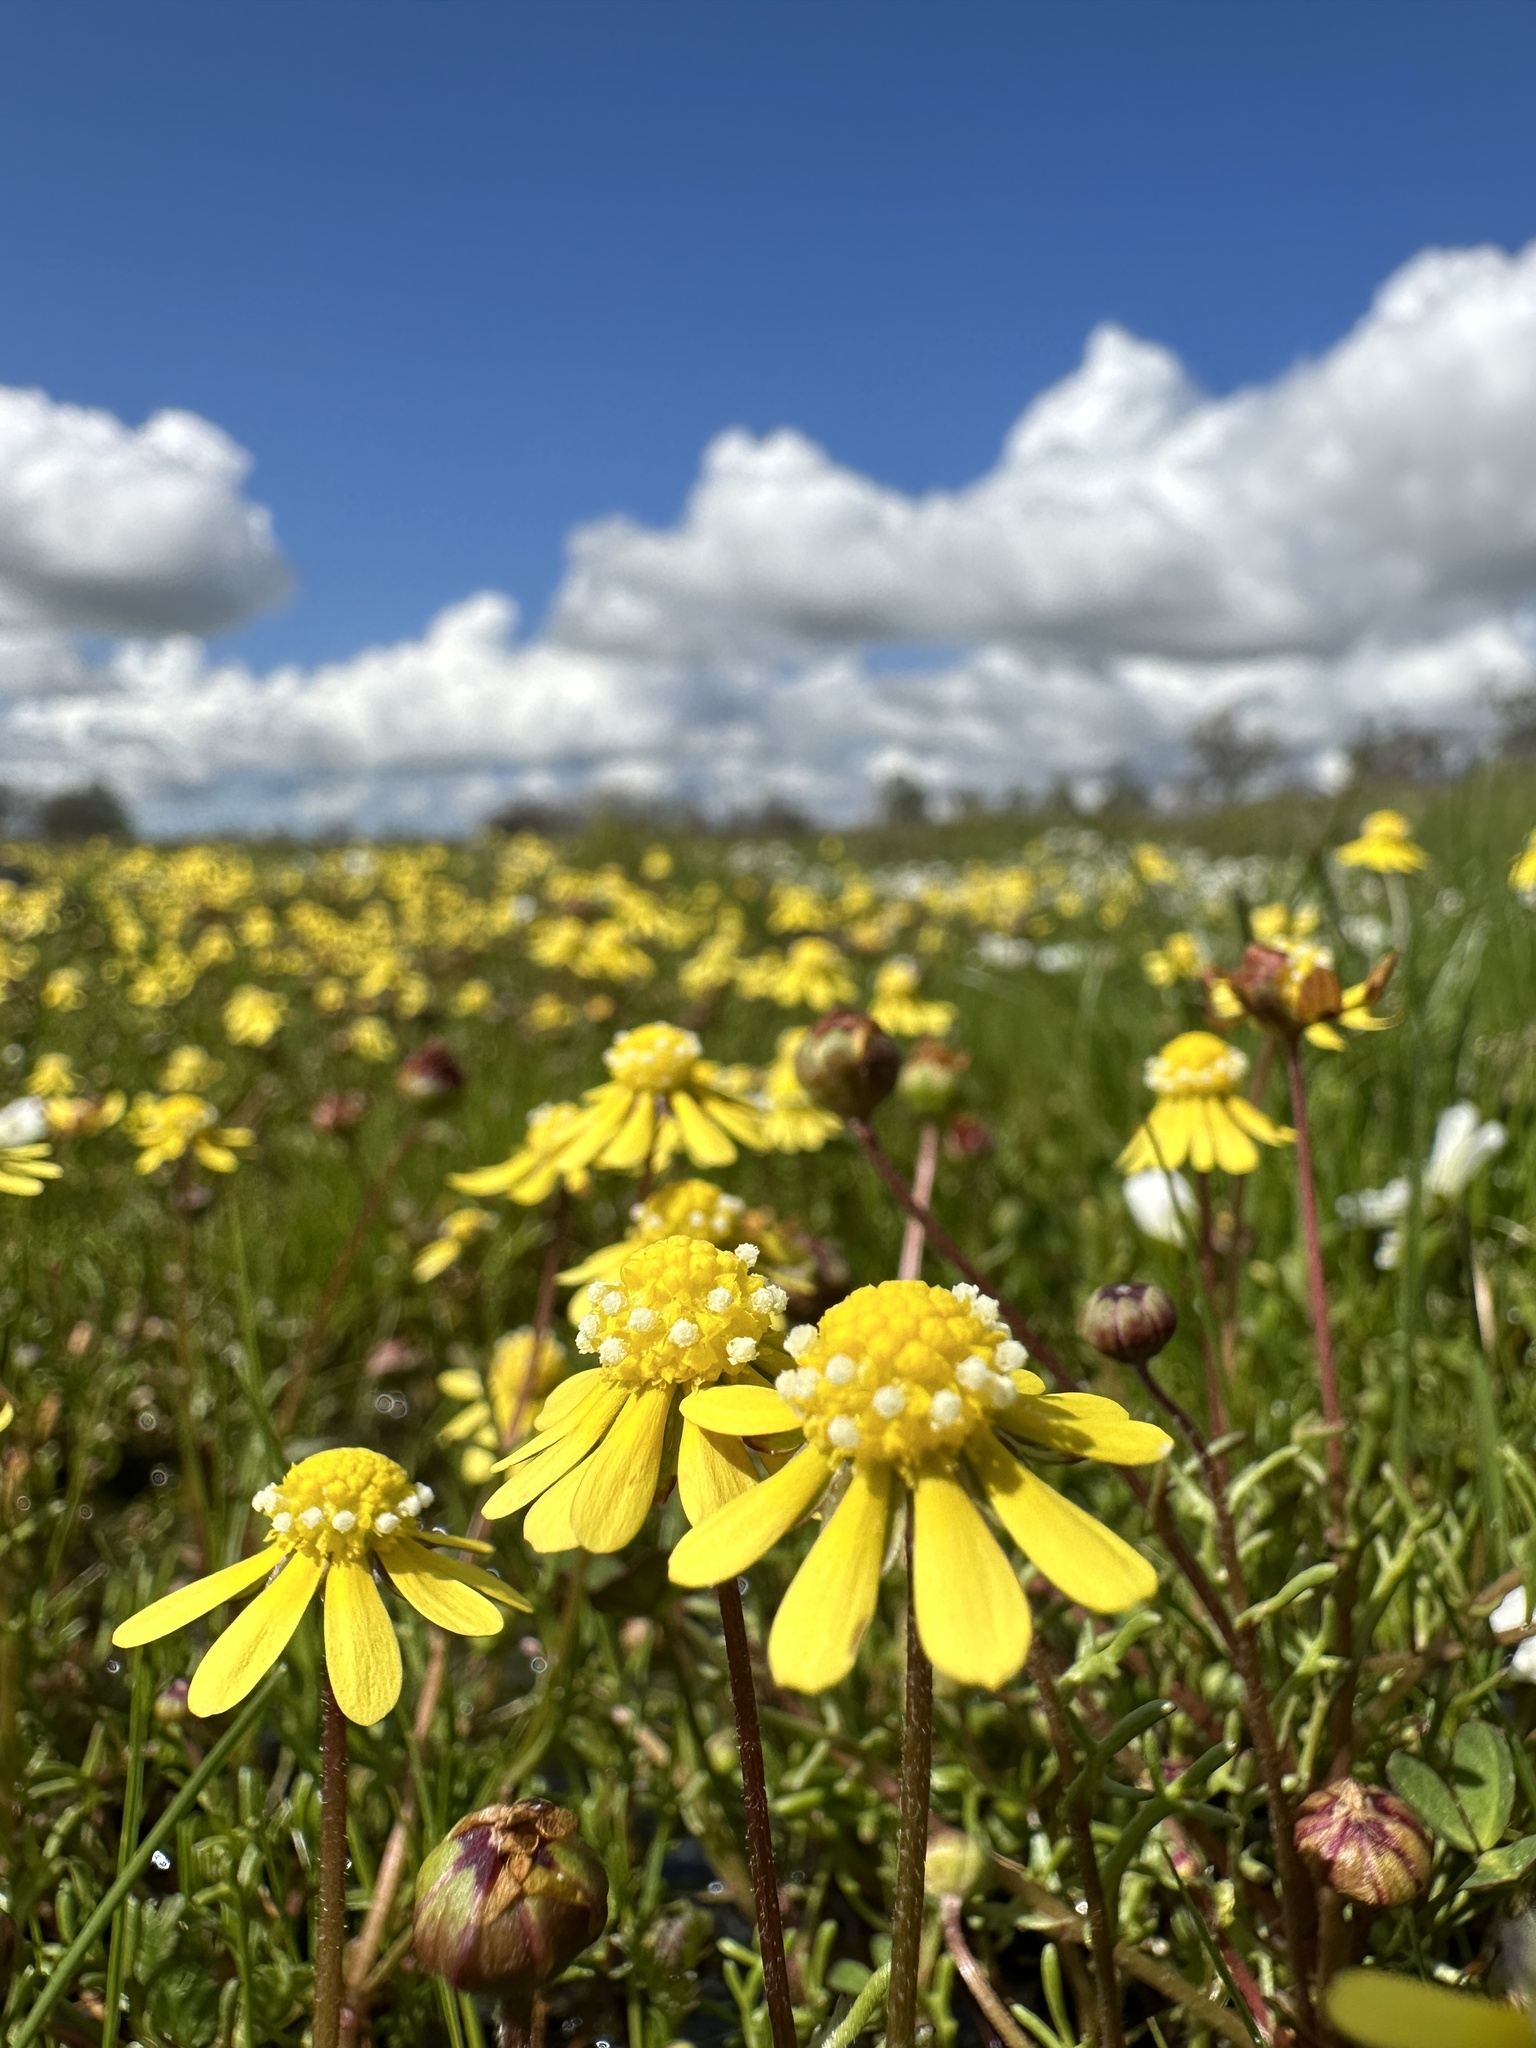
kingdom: Plantae
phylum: Tracheophyta
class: Magnoliopsida
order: Asterales
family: Asteraceae
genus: Blennosperma
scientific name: Blennosperma nanum
